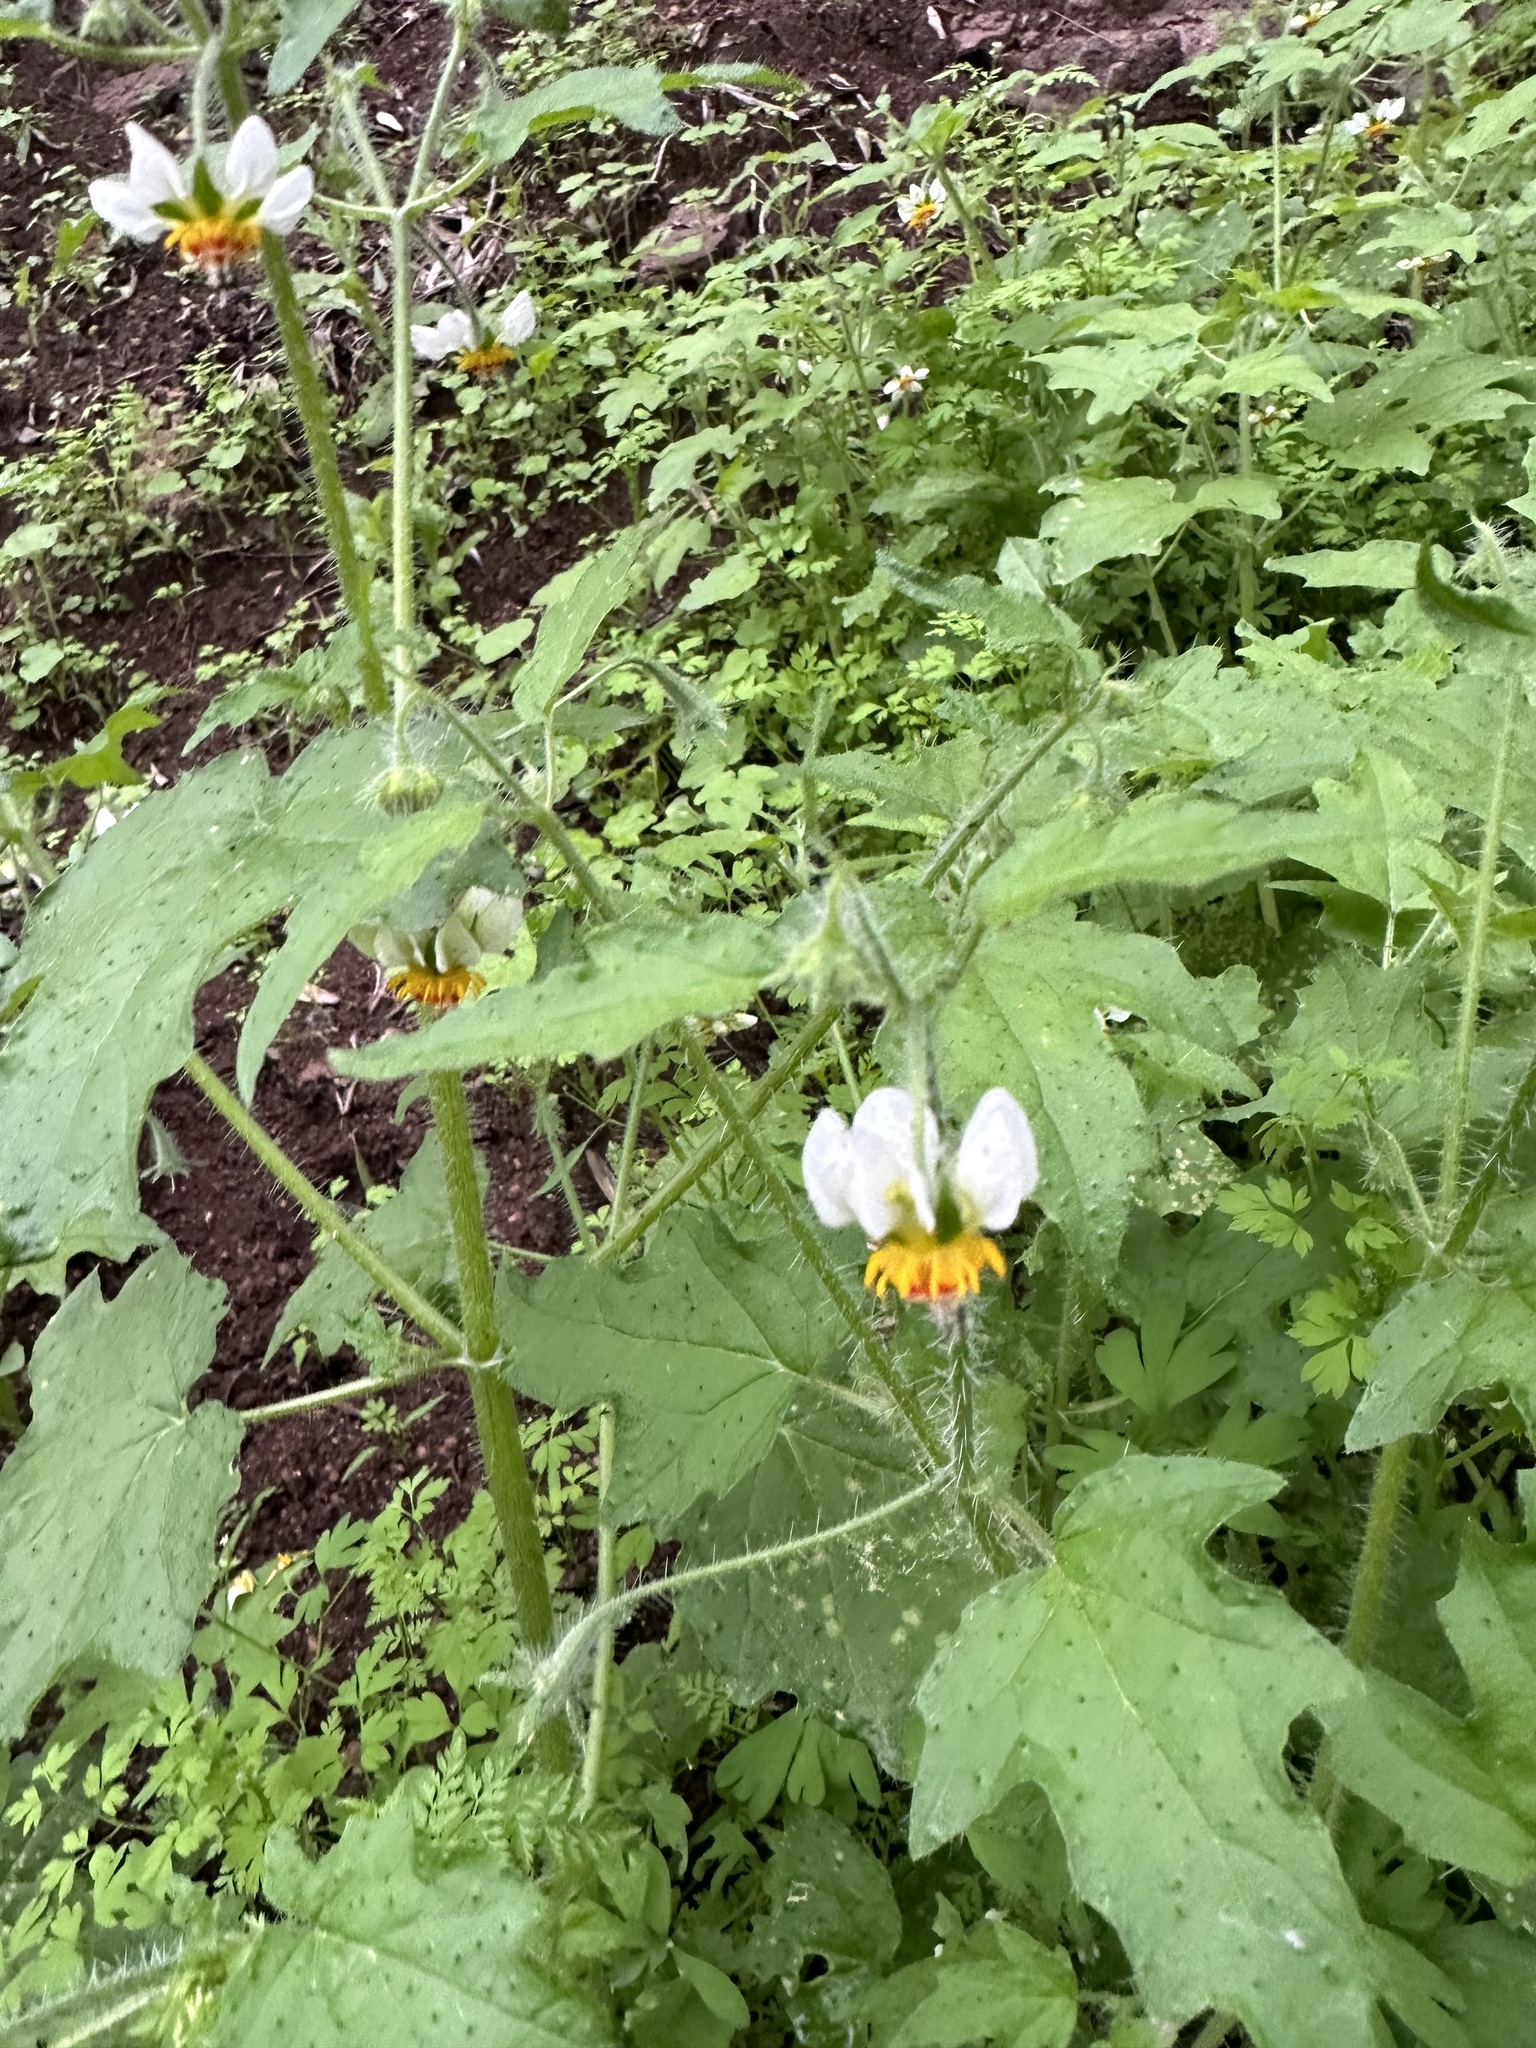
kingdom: Plantae
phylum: Tracheophyta
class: Magnoliopsida
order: Cornales
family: Loasaceae
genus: Loasa
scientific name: Loasa triloba
